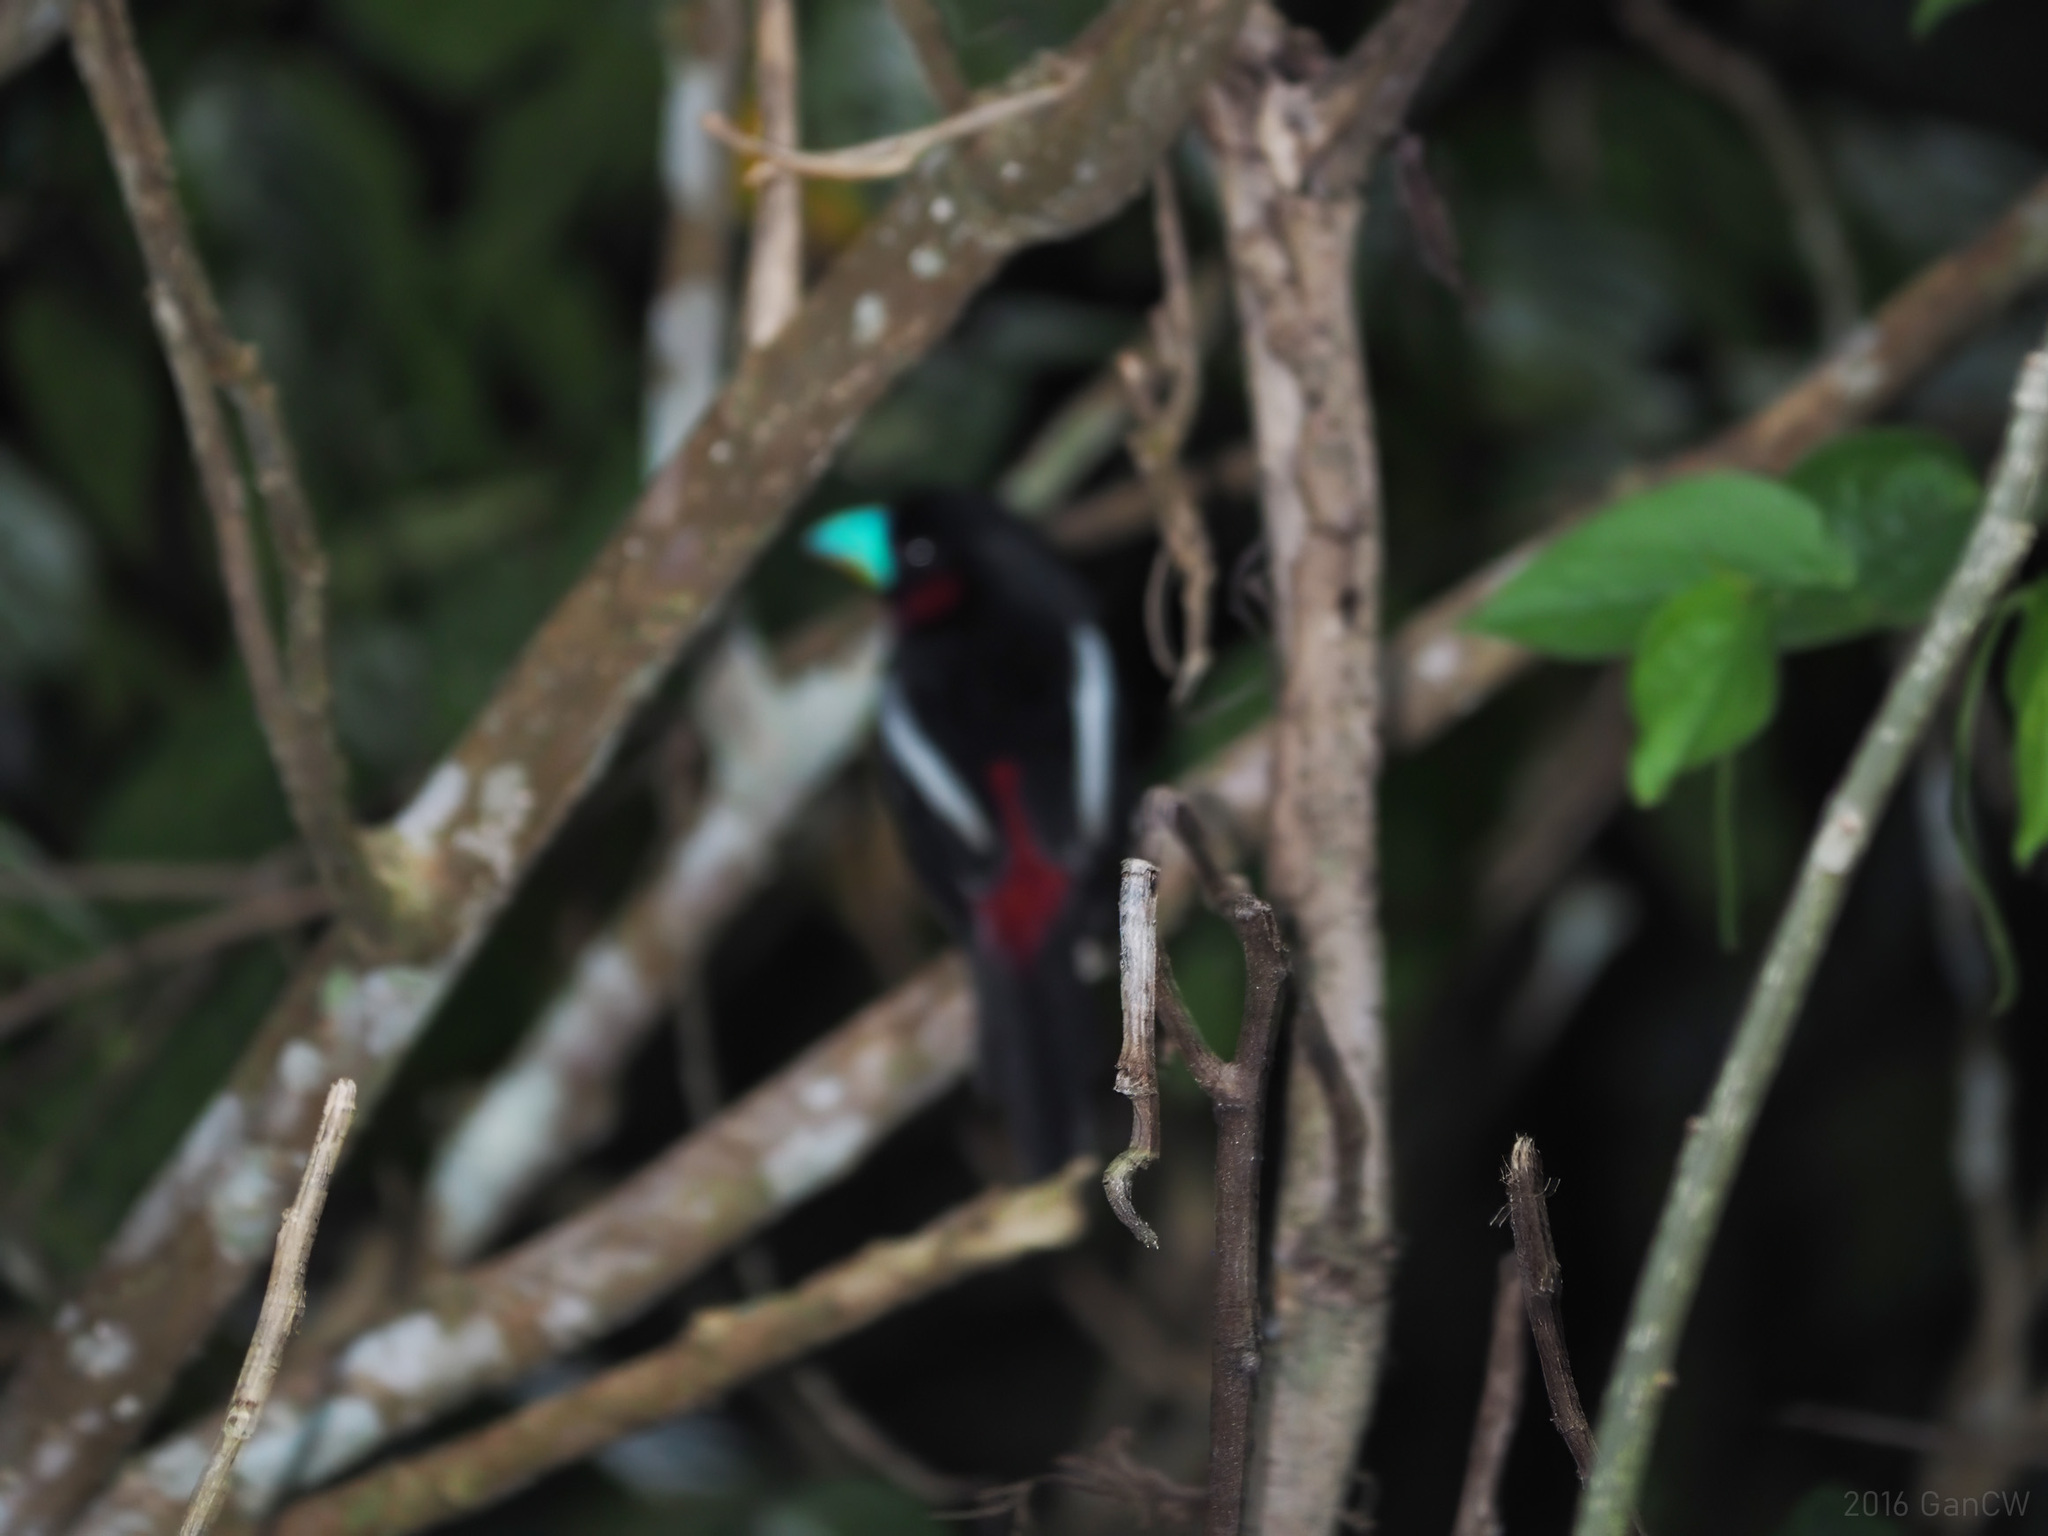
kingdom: Animalia
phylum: Chordata
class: Aves
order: Passeriformes
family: Eurylaimidae
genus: Cymbirhynchus
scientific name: Cymbirhynchus macrorhynchos
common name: Black-and-red broadbill
